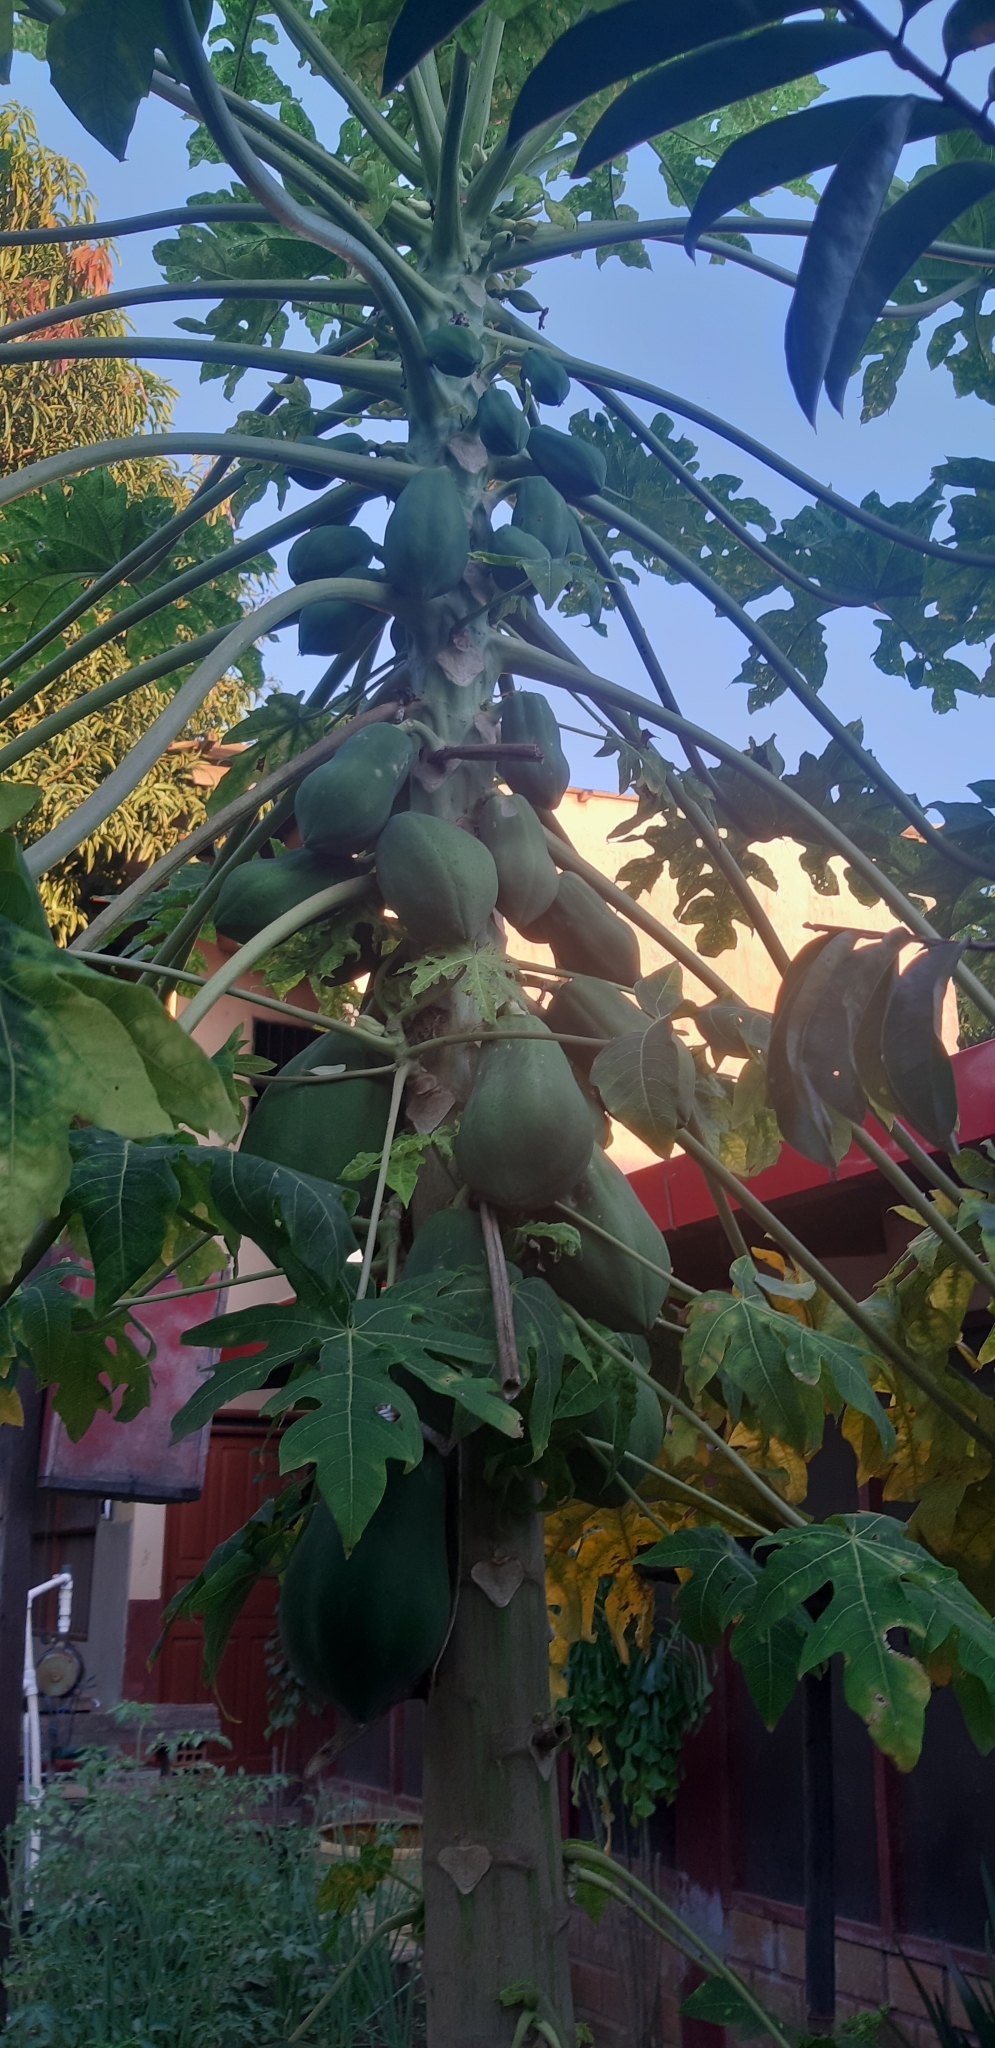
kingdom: Plantae
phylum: Tracheophyta
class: Magnoliopsida
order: Brassicales
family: Caricaceae
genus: Carica
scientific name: Carica papaya
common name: Papaya
